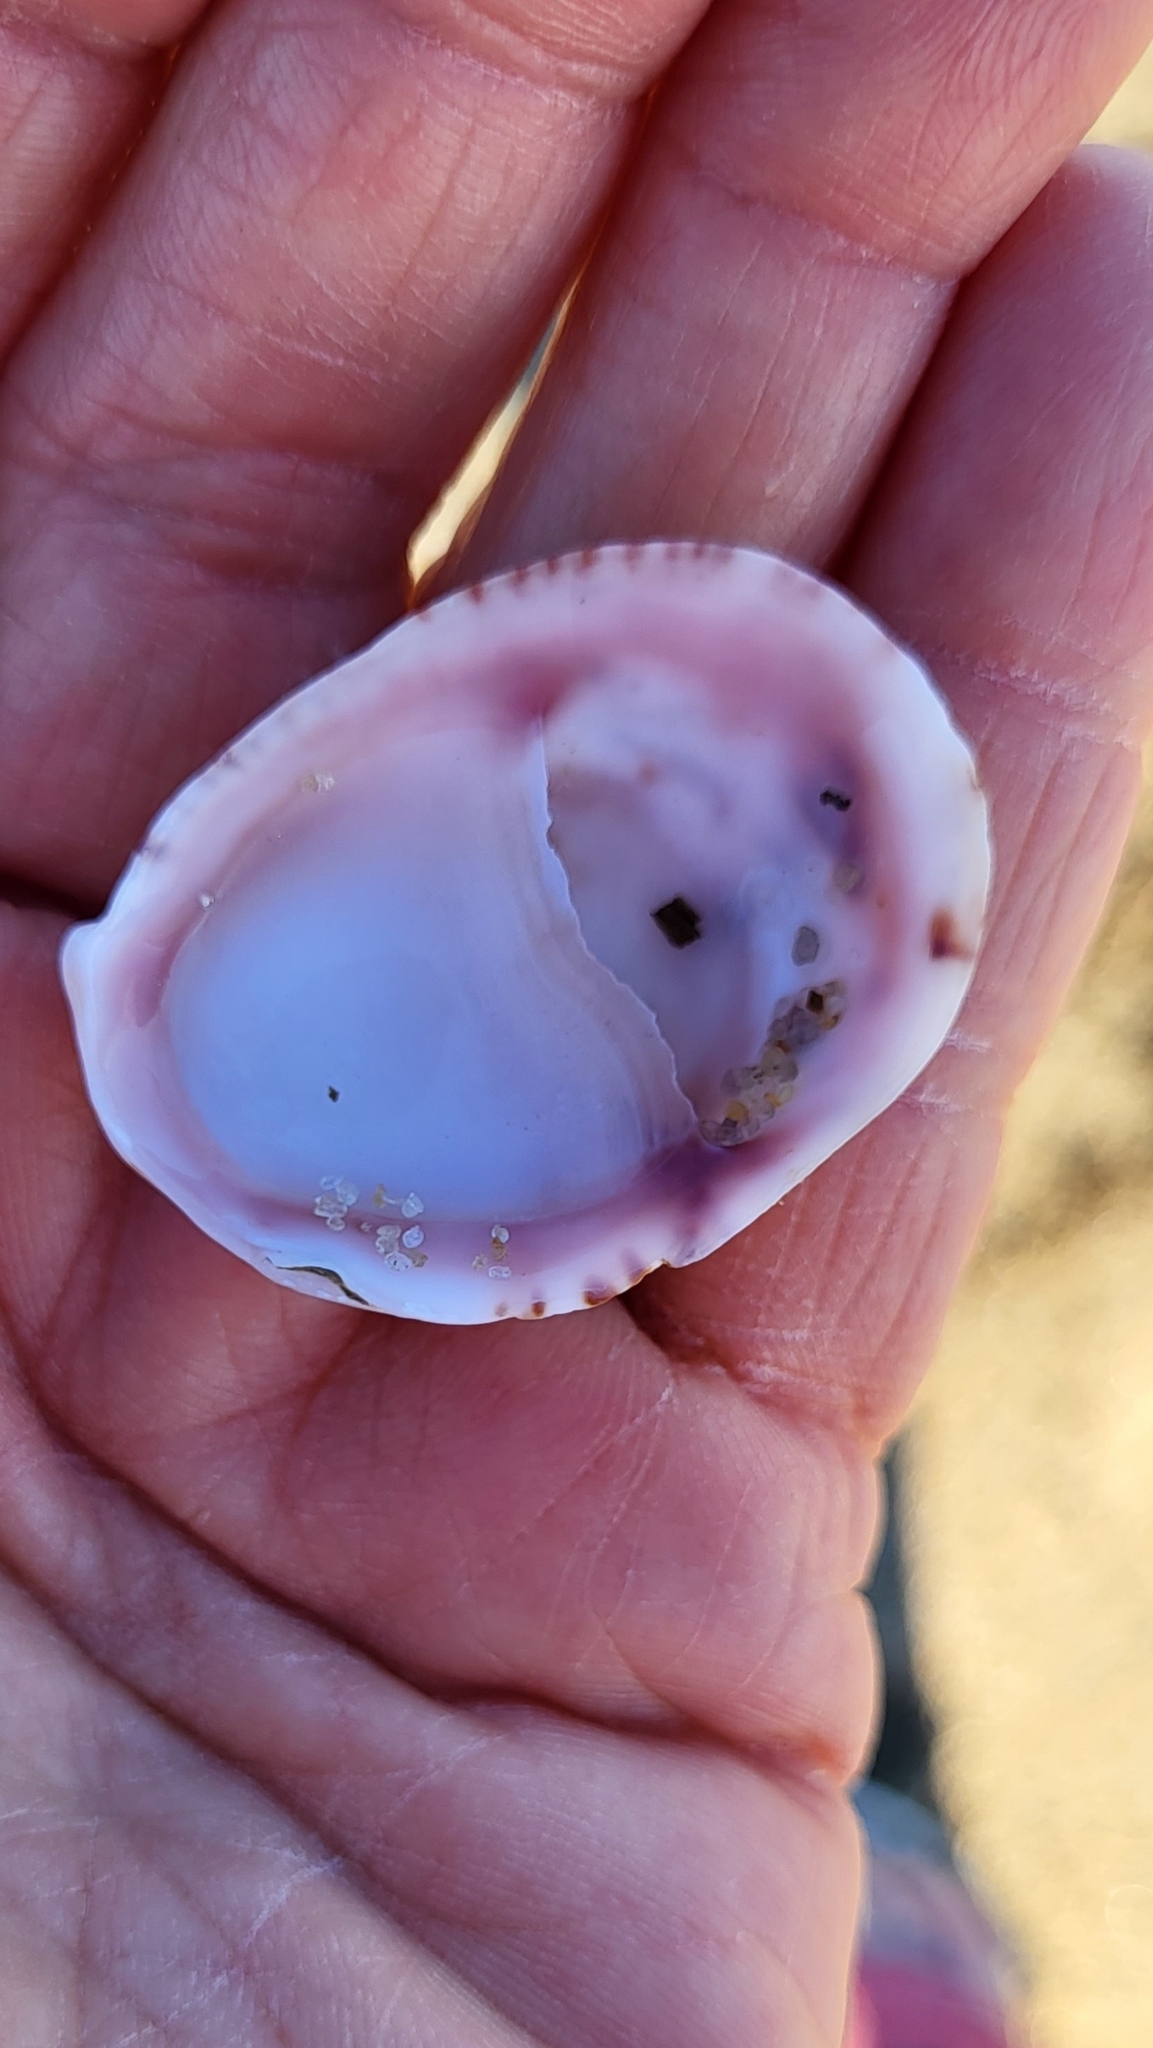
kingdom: Animalia
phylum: Mollusca
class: Gastropoda
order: Littorinimorpha
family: Calyptraeidae
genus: Crepidula
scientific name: Crepidula fornicata
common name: Slipper limpet
